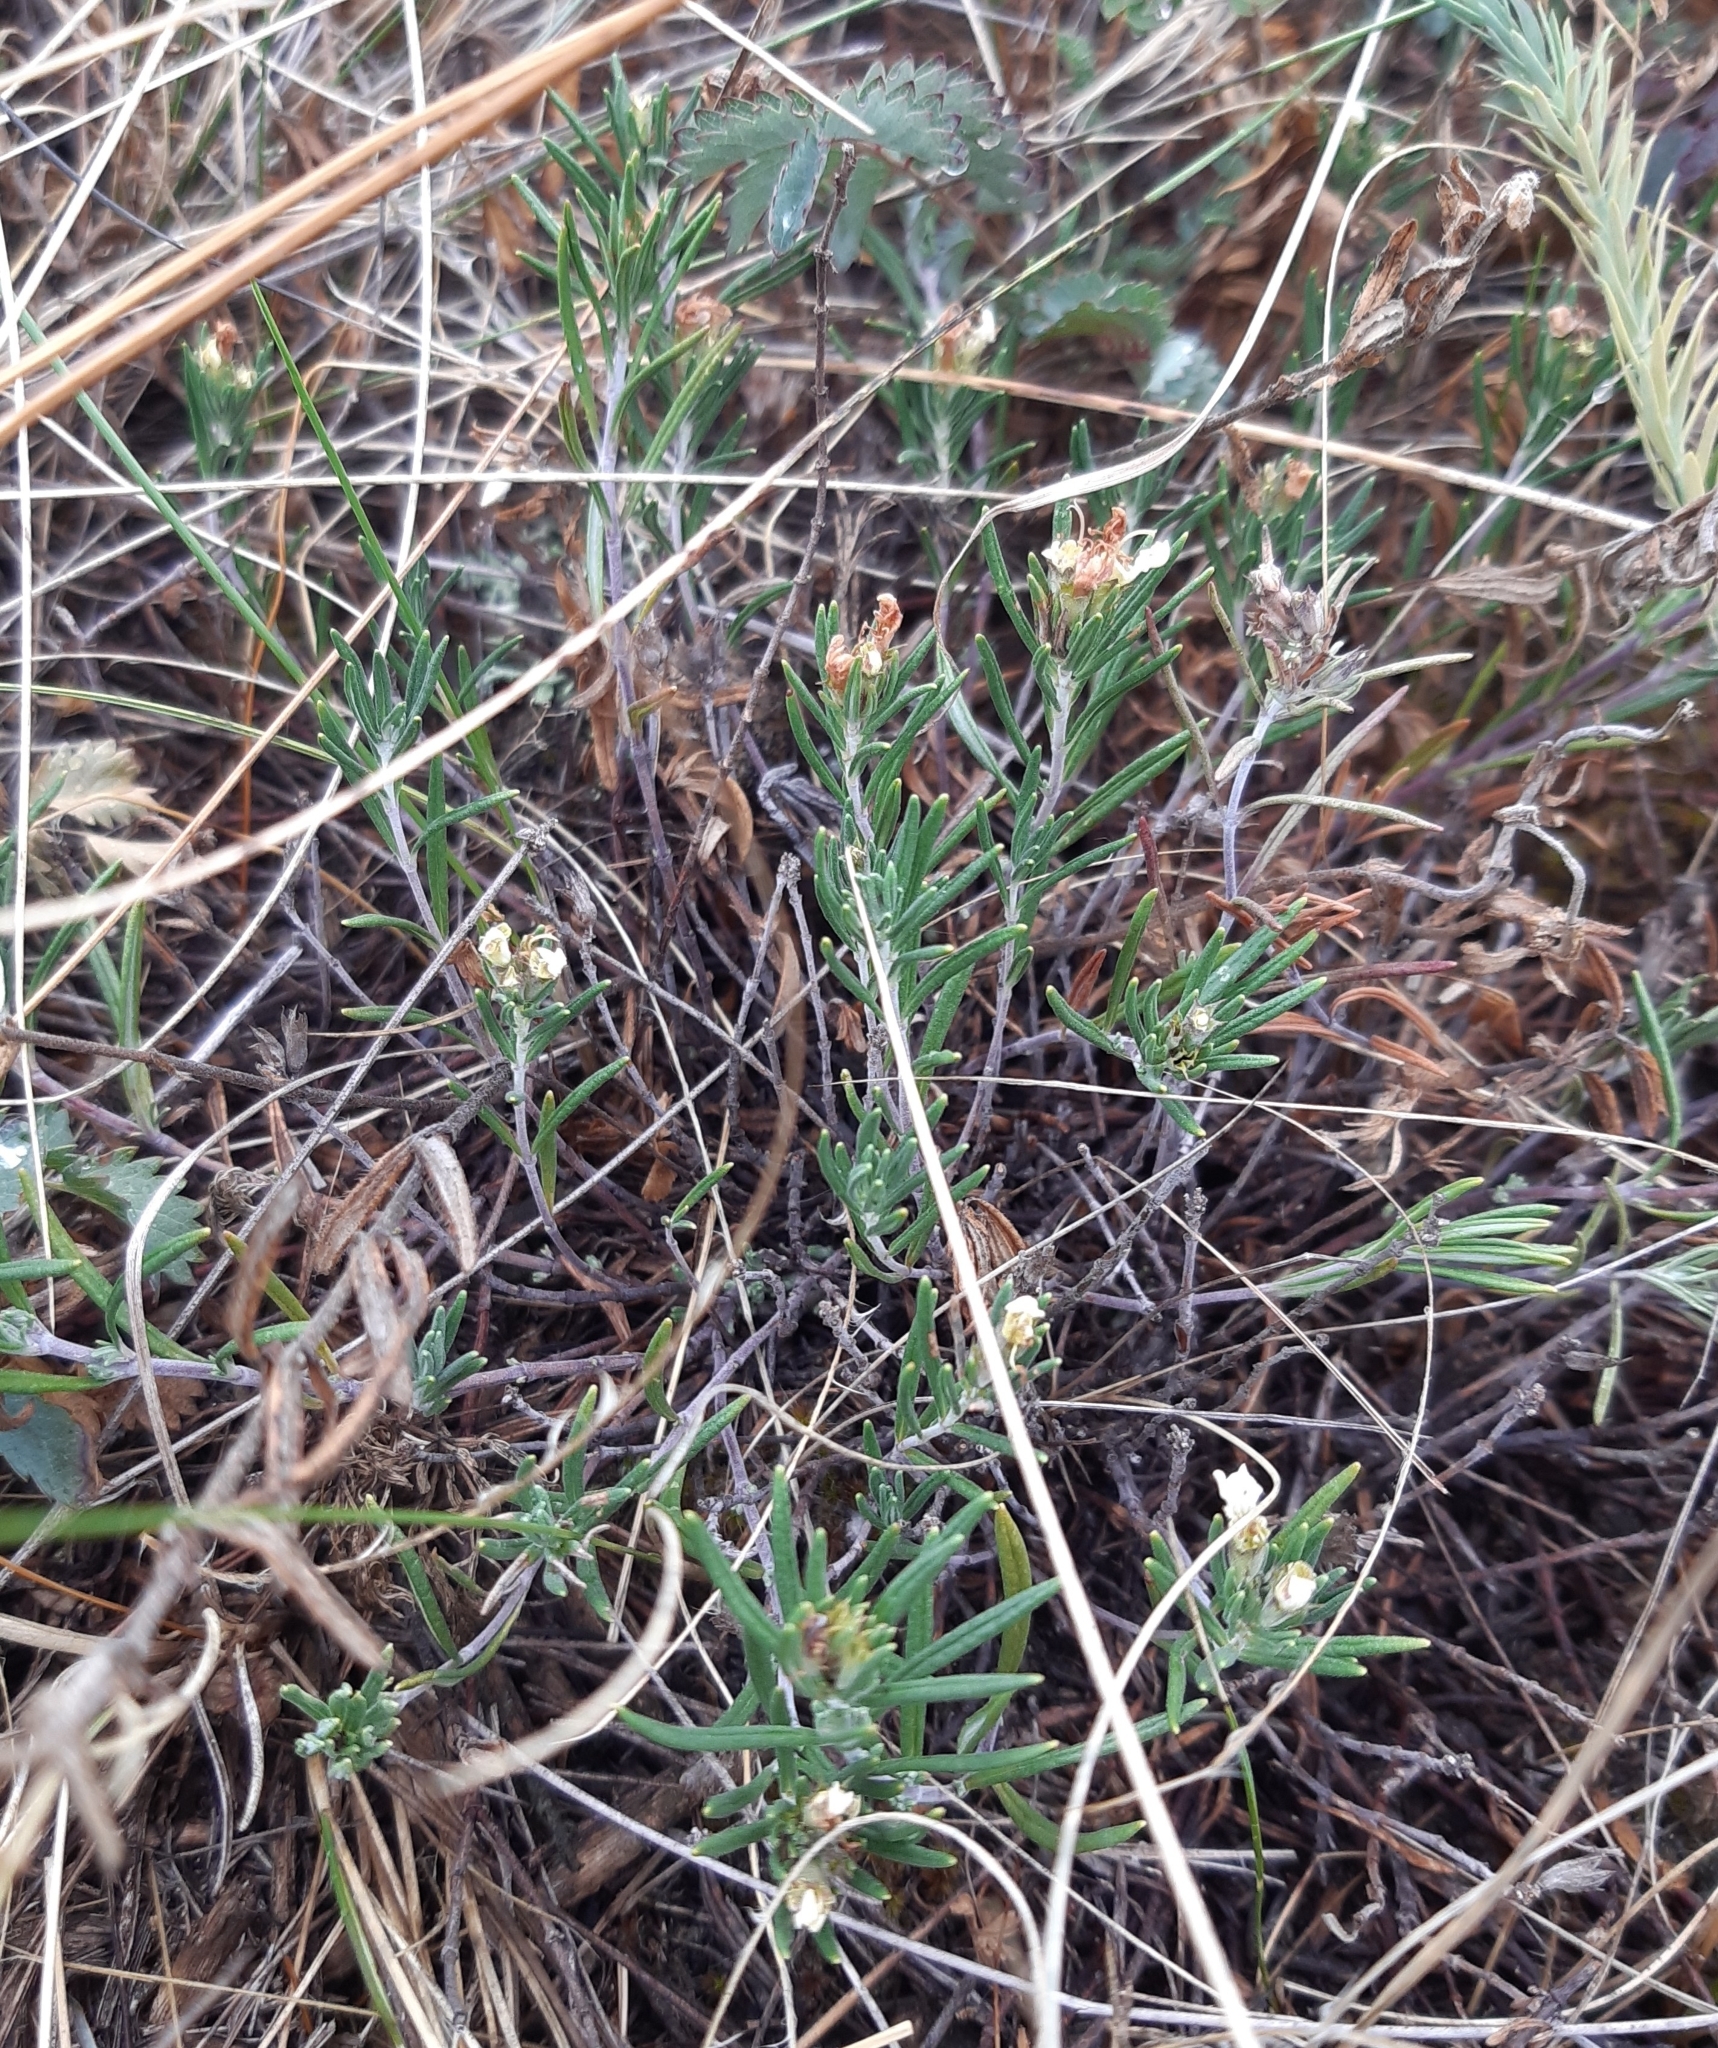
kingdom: Plantae
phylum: Tracheophyta
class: Magnoliopsida
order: Lamiales
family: Lamiaceae
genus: Teucrium
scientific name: Teucrium montanum
